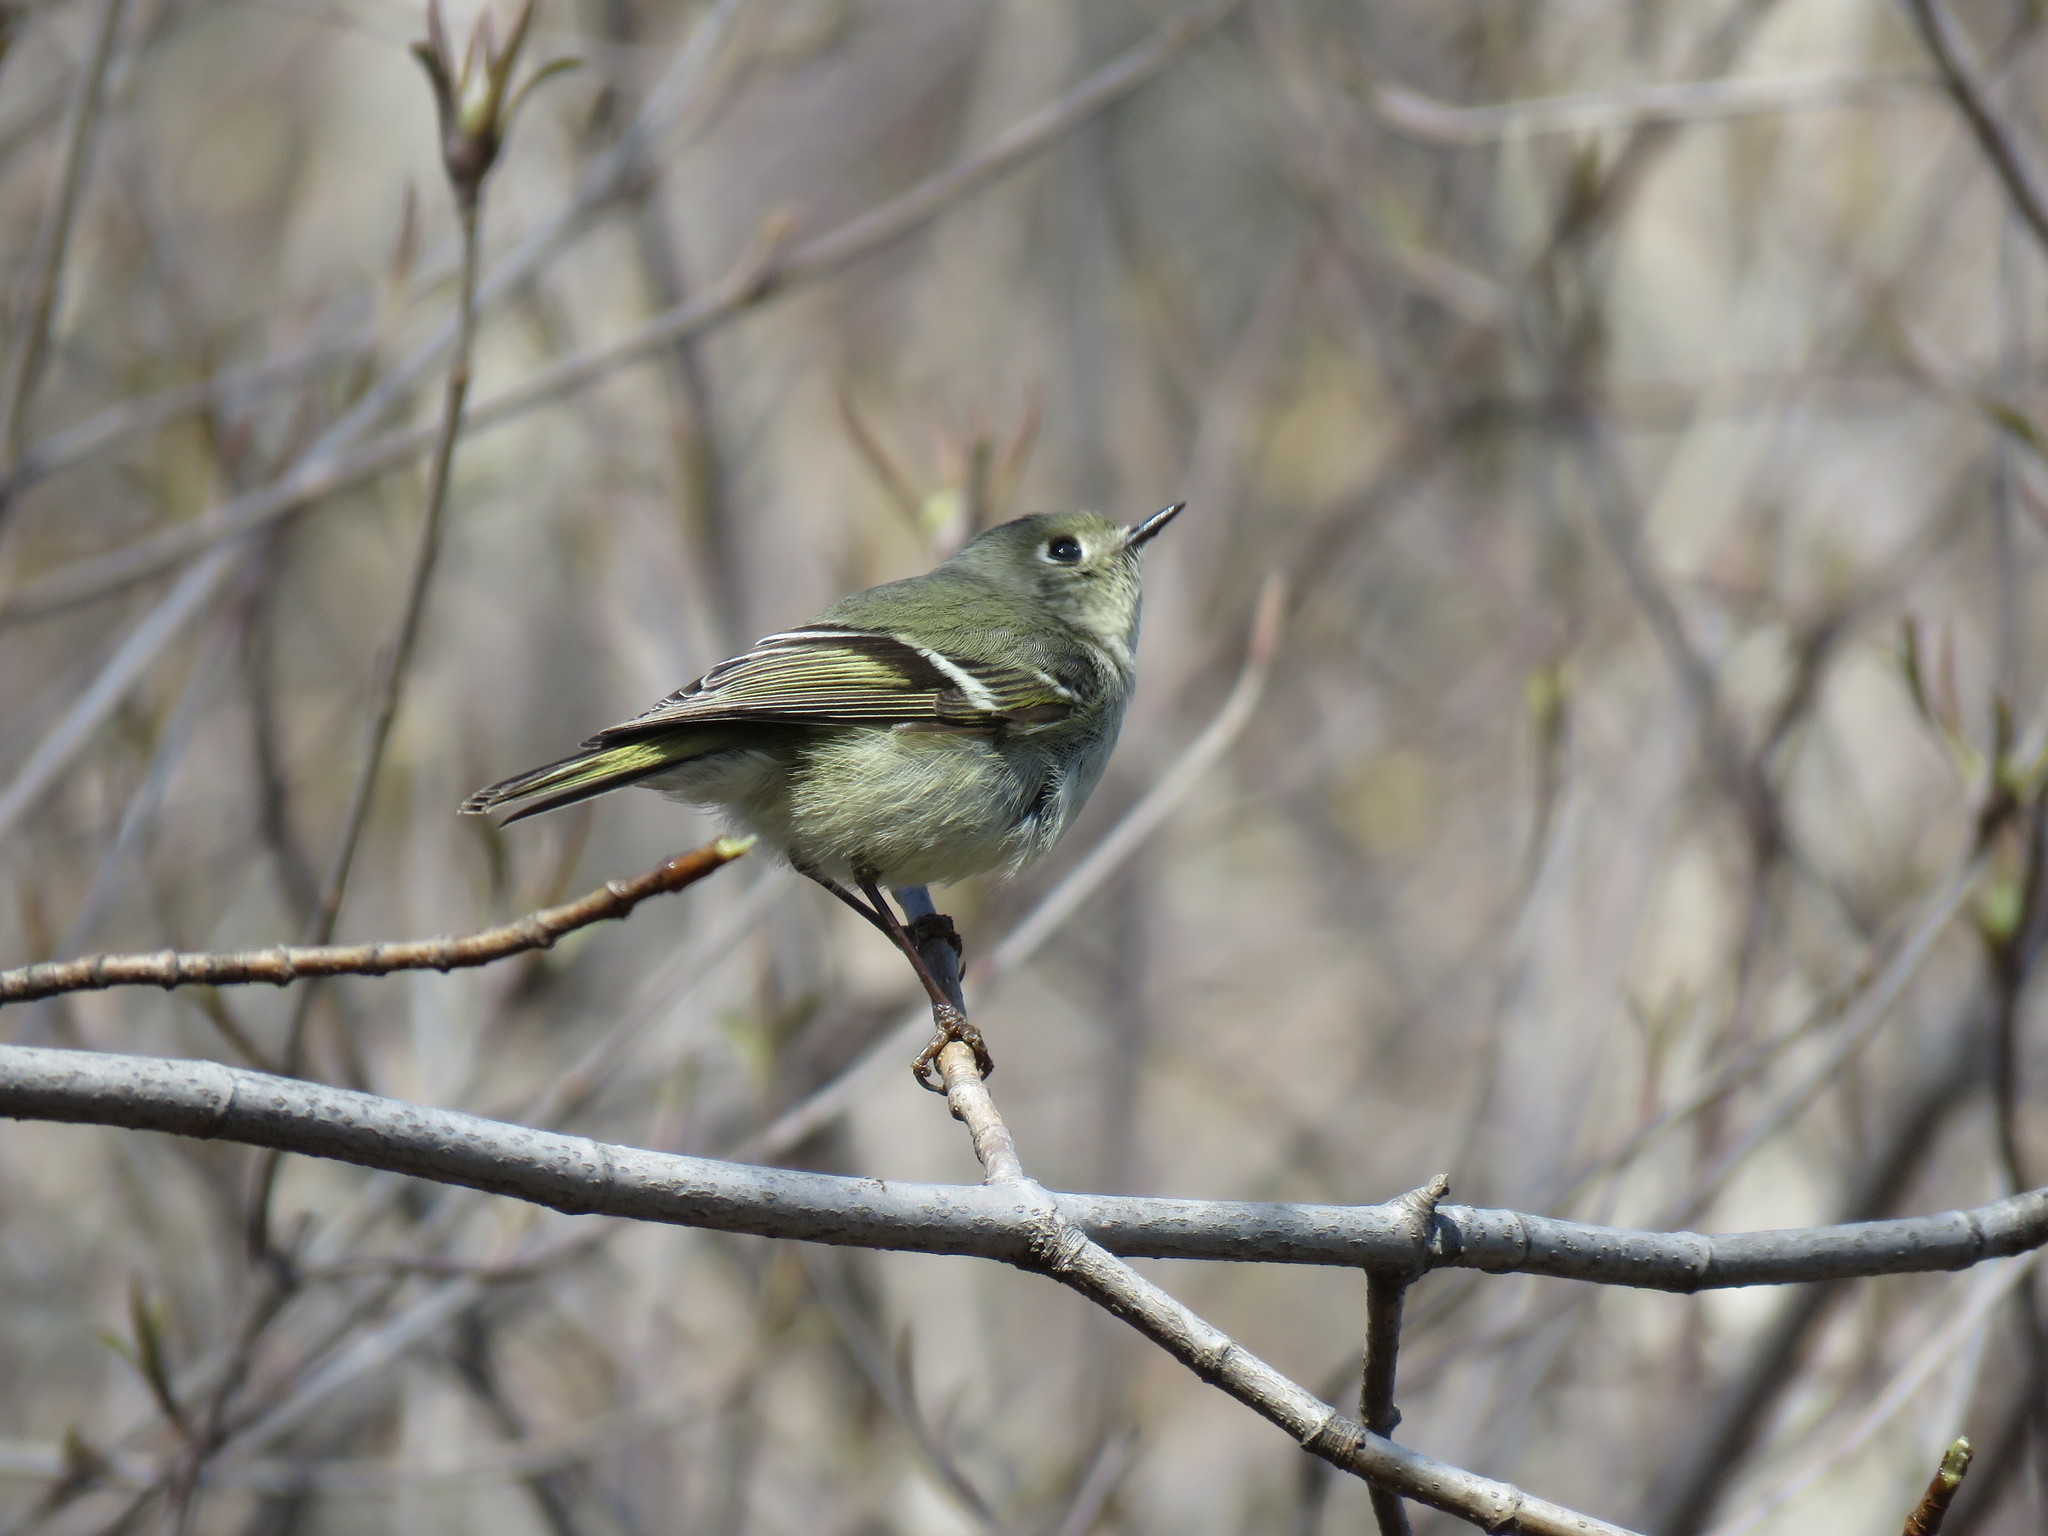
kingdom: Animalia
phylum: Chordata
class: Aves
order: Passeriformes
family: Regulidae
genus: Regulus
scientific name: Regulus calendula
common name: Ruby-crowned kinglet
